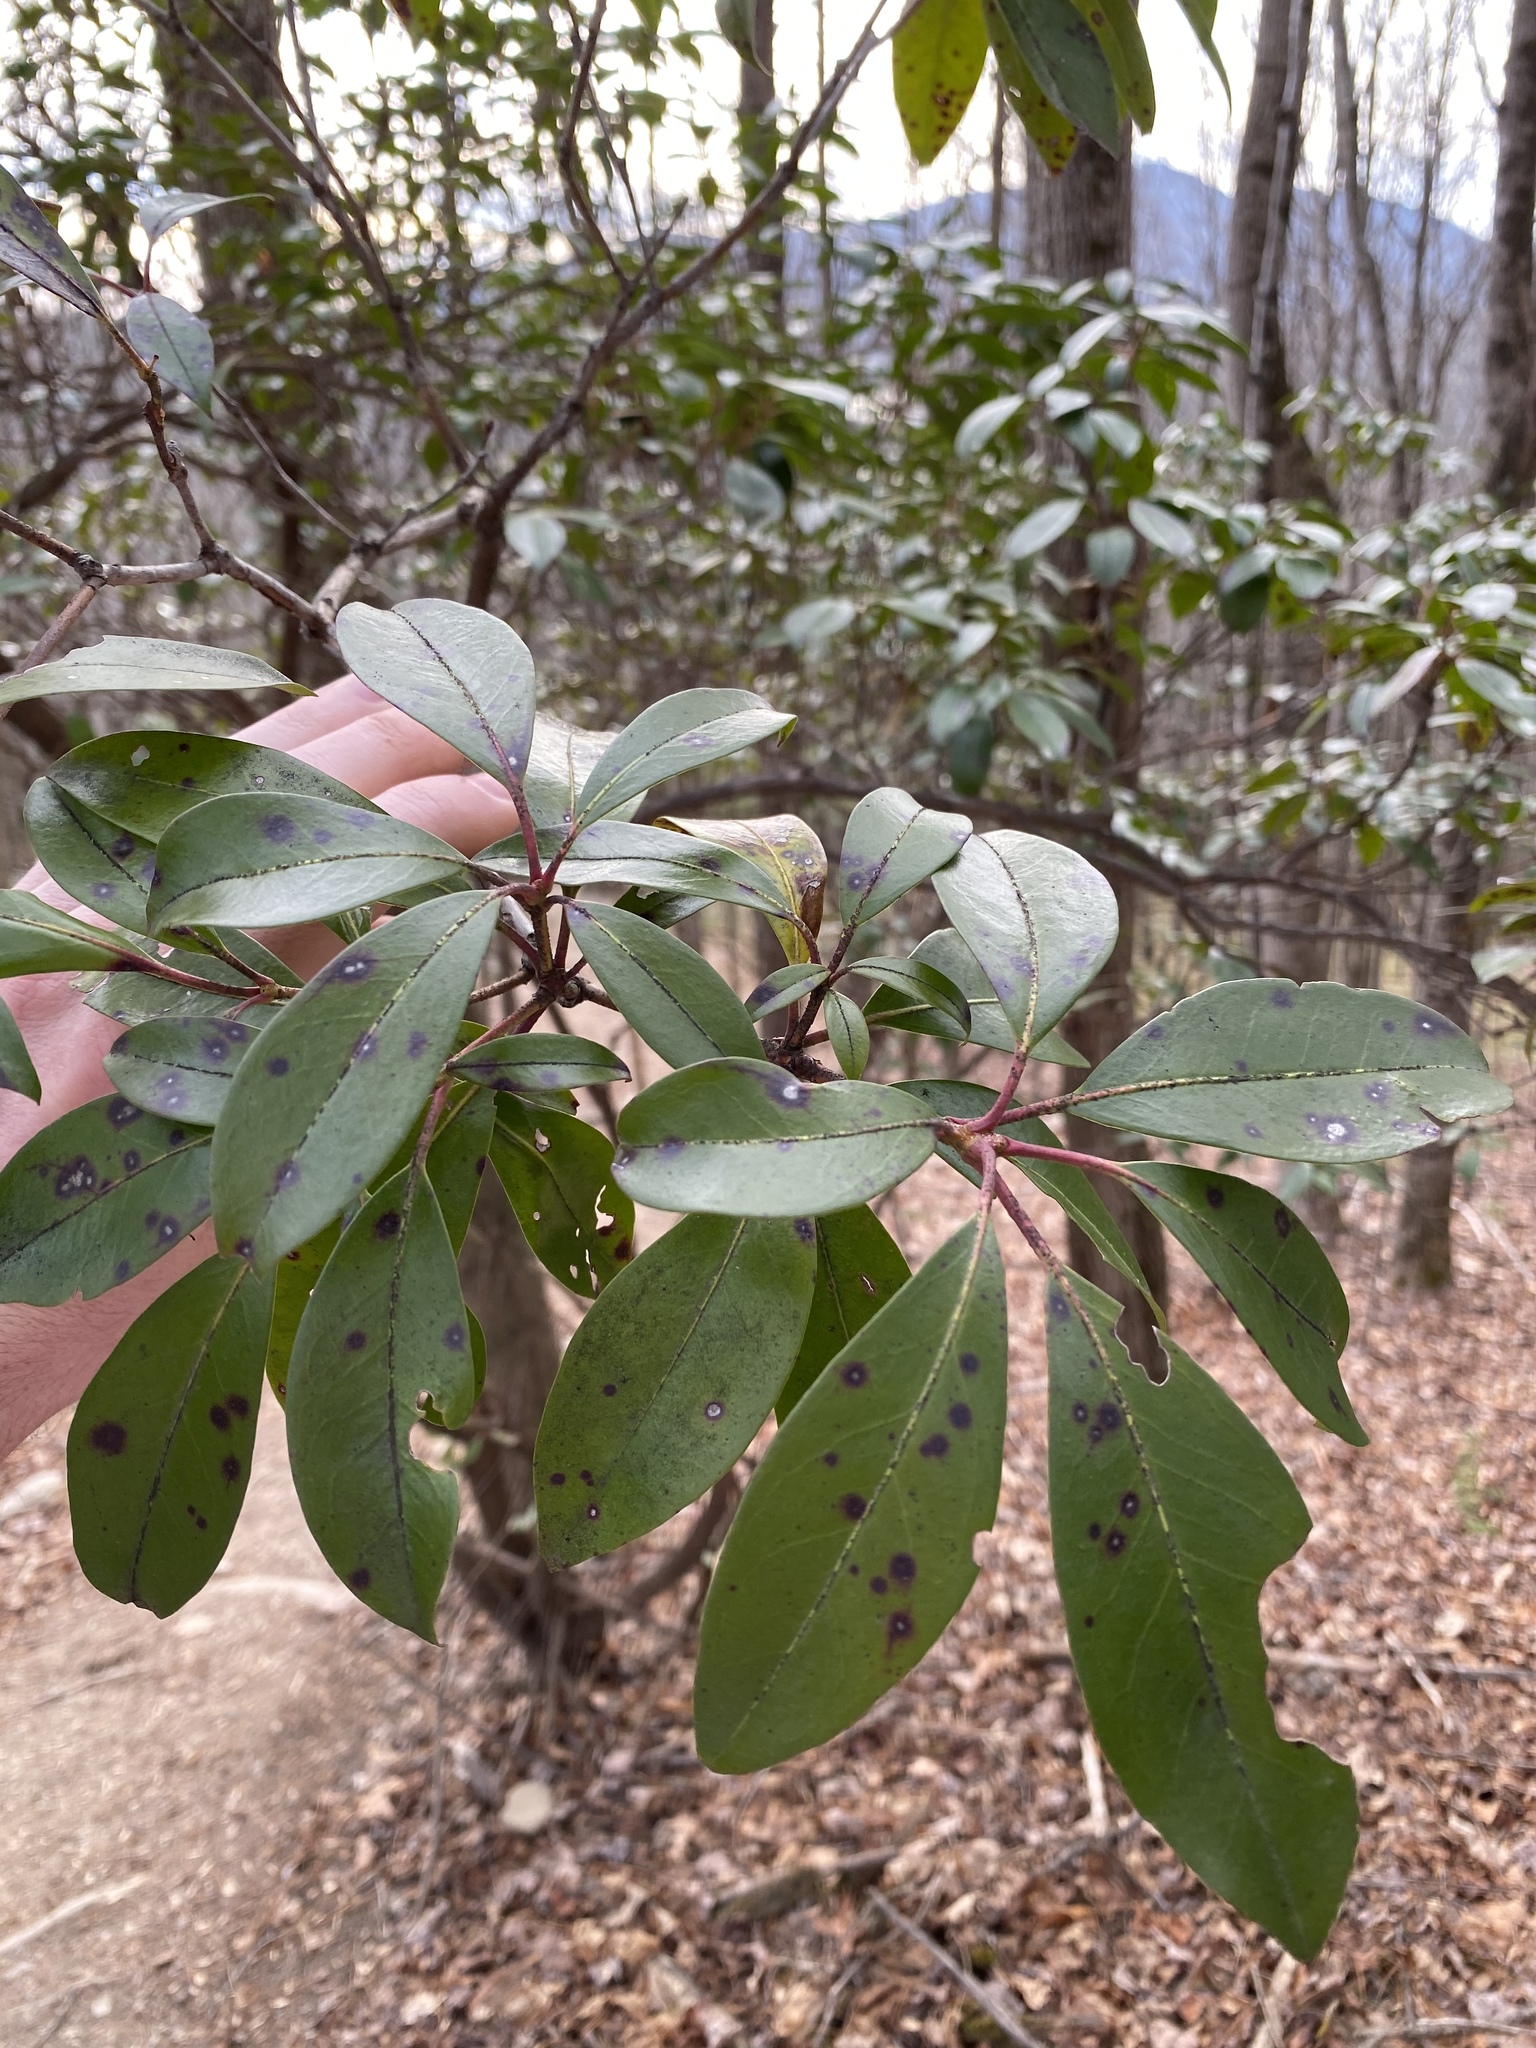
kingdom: Plantae
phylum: Tracheophyta
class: Magnoliopsida
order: Ericales
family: Ericaceae
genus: Kalmia
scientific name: Kalmia latifolia
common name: Mountain-laurel
